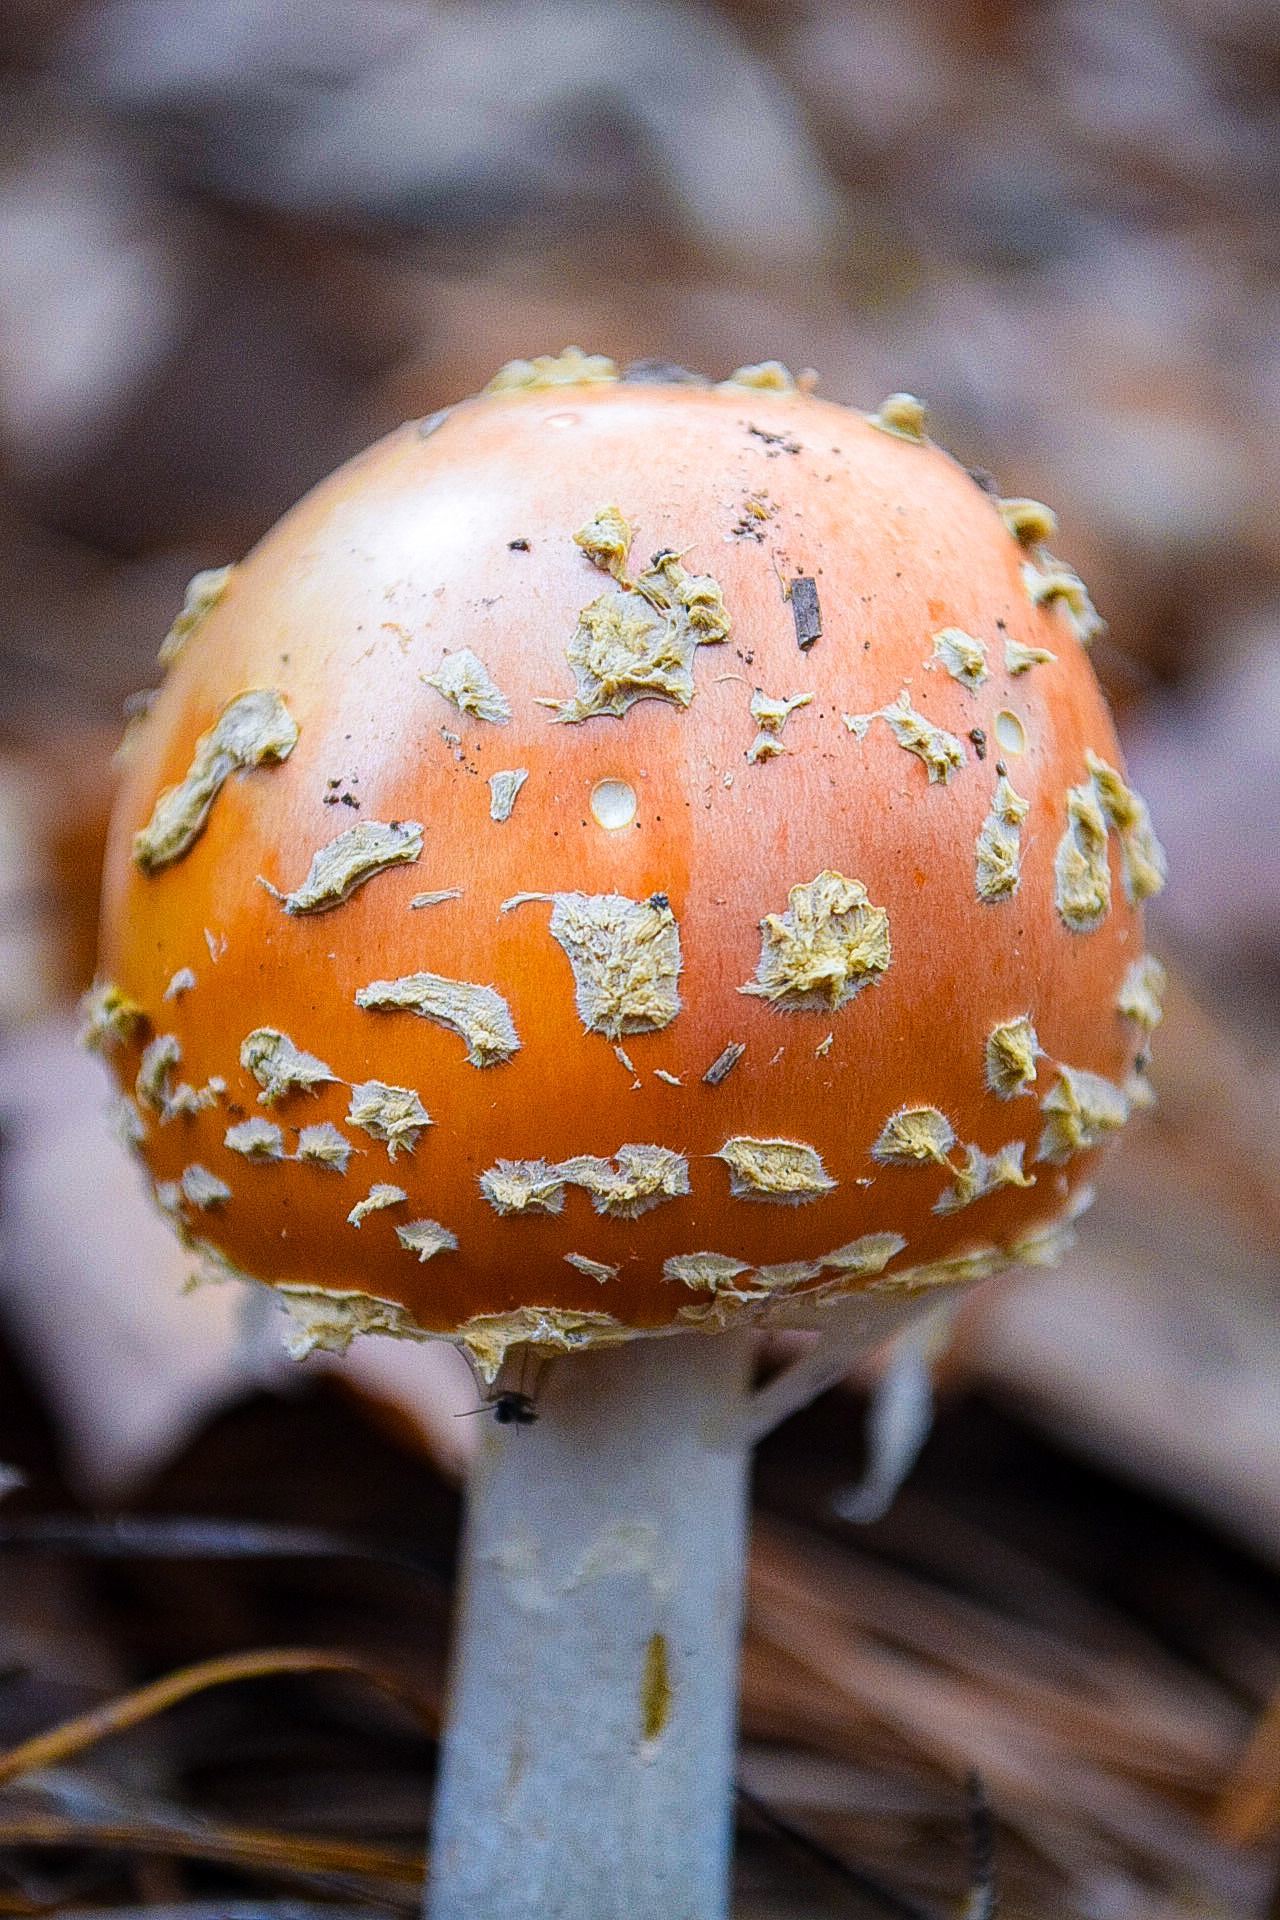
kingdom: Fungi
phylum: Basidiomycota
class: Agaricomycetes
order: Agaricales
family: Amanitaceae
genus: Amanita
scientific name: Amanita persicina
